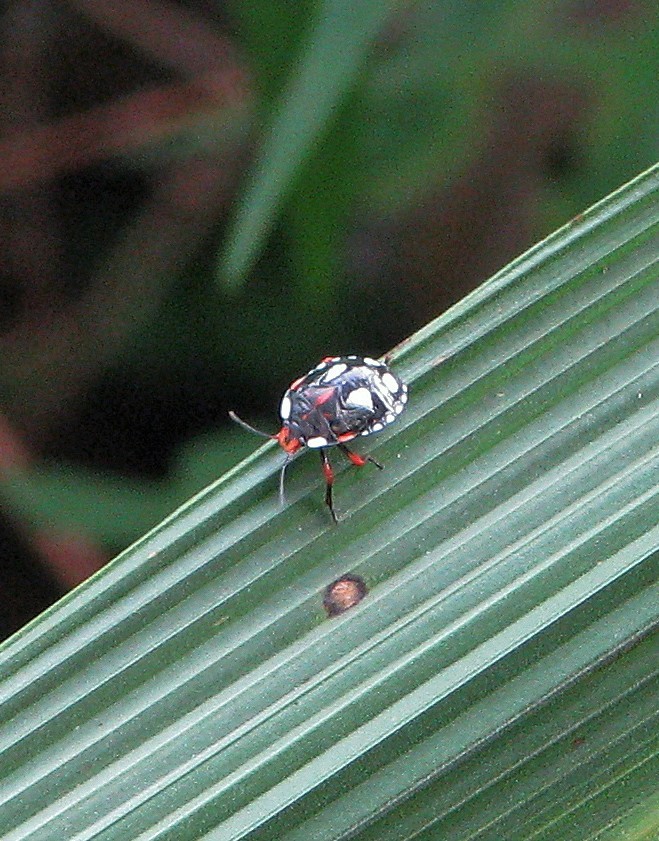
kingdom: Animalia
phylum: Arthropoda
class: Insecta
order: Hemiptera
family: Pentatomidae
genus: Chinavia
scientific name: Chinavia erythrocnemis
